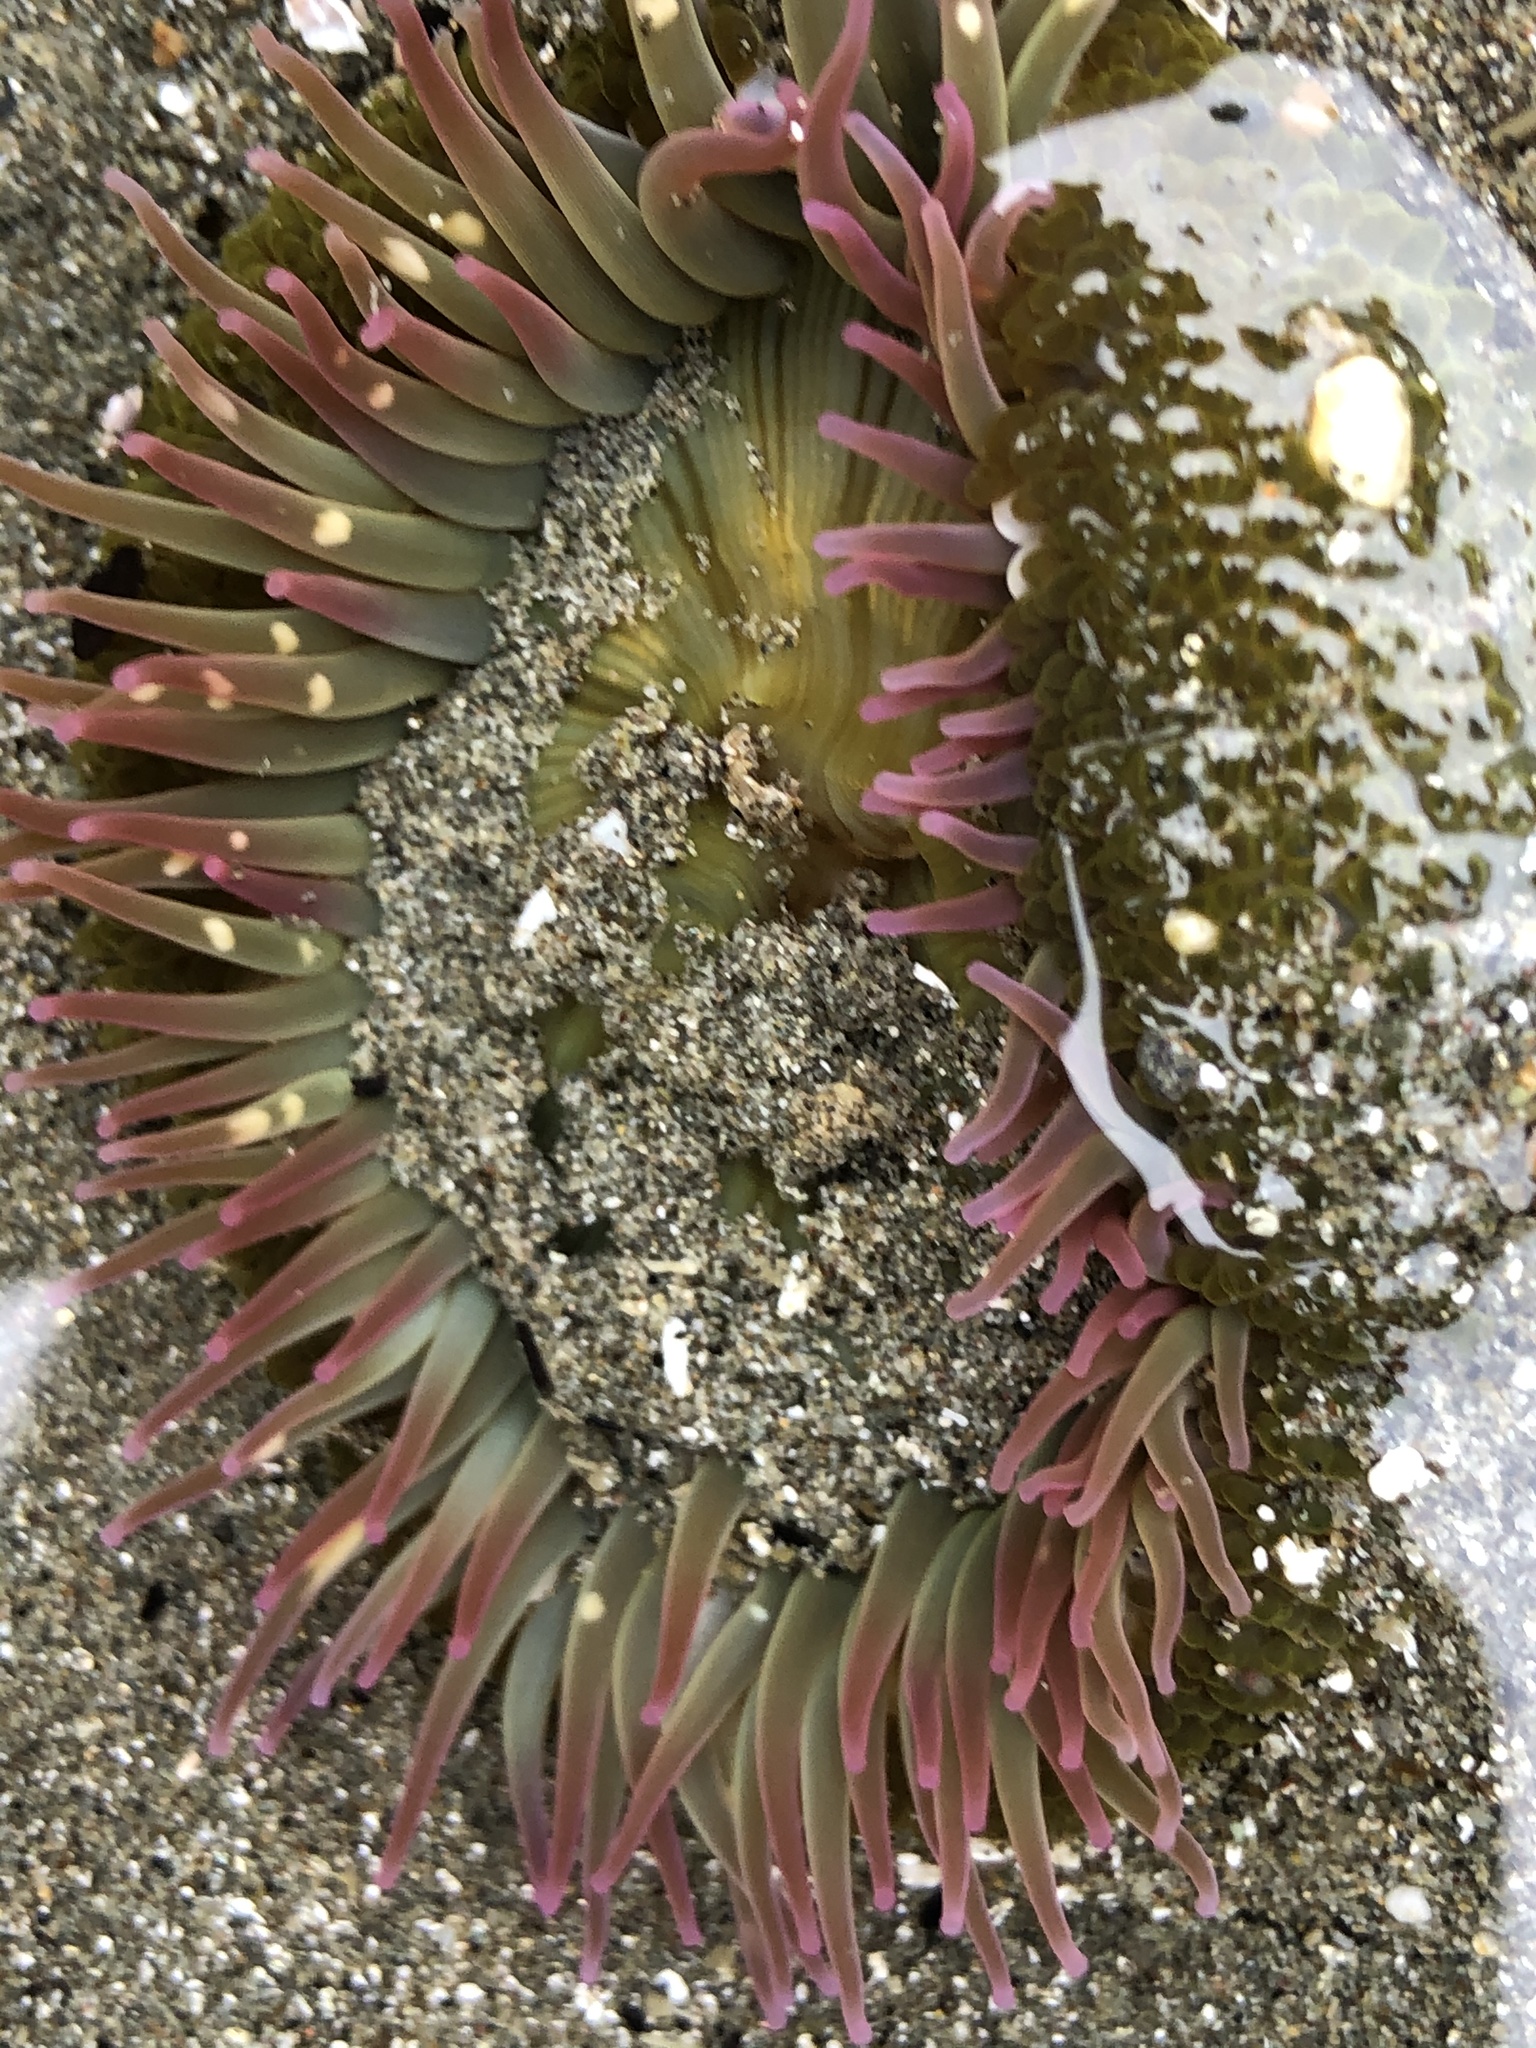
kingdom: Animalia
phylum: Cnidaria
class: Anthozoa
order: Actiniaria
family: Actiniidae
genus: Anthopleura
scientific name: Anthopleura elegantissima
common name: Clonal anemone
